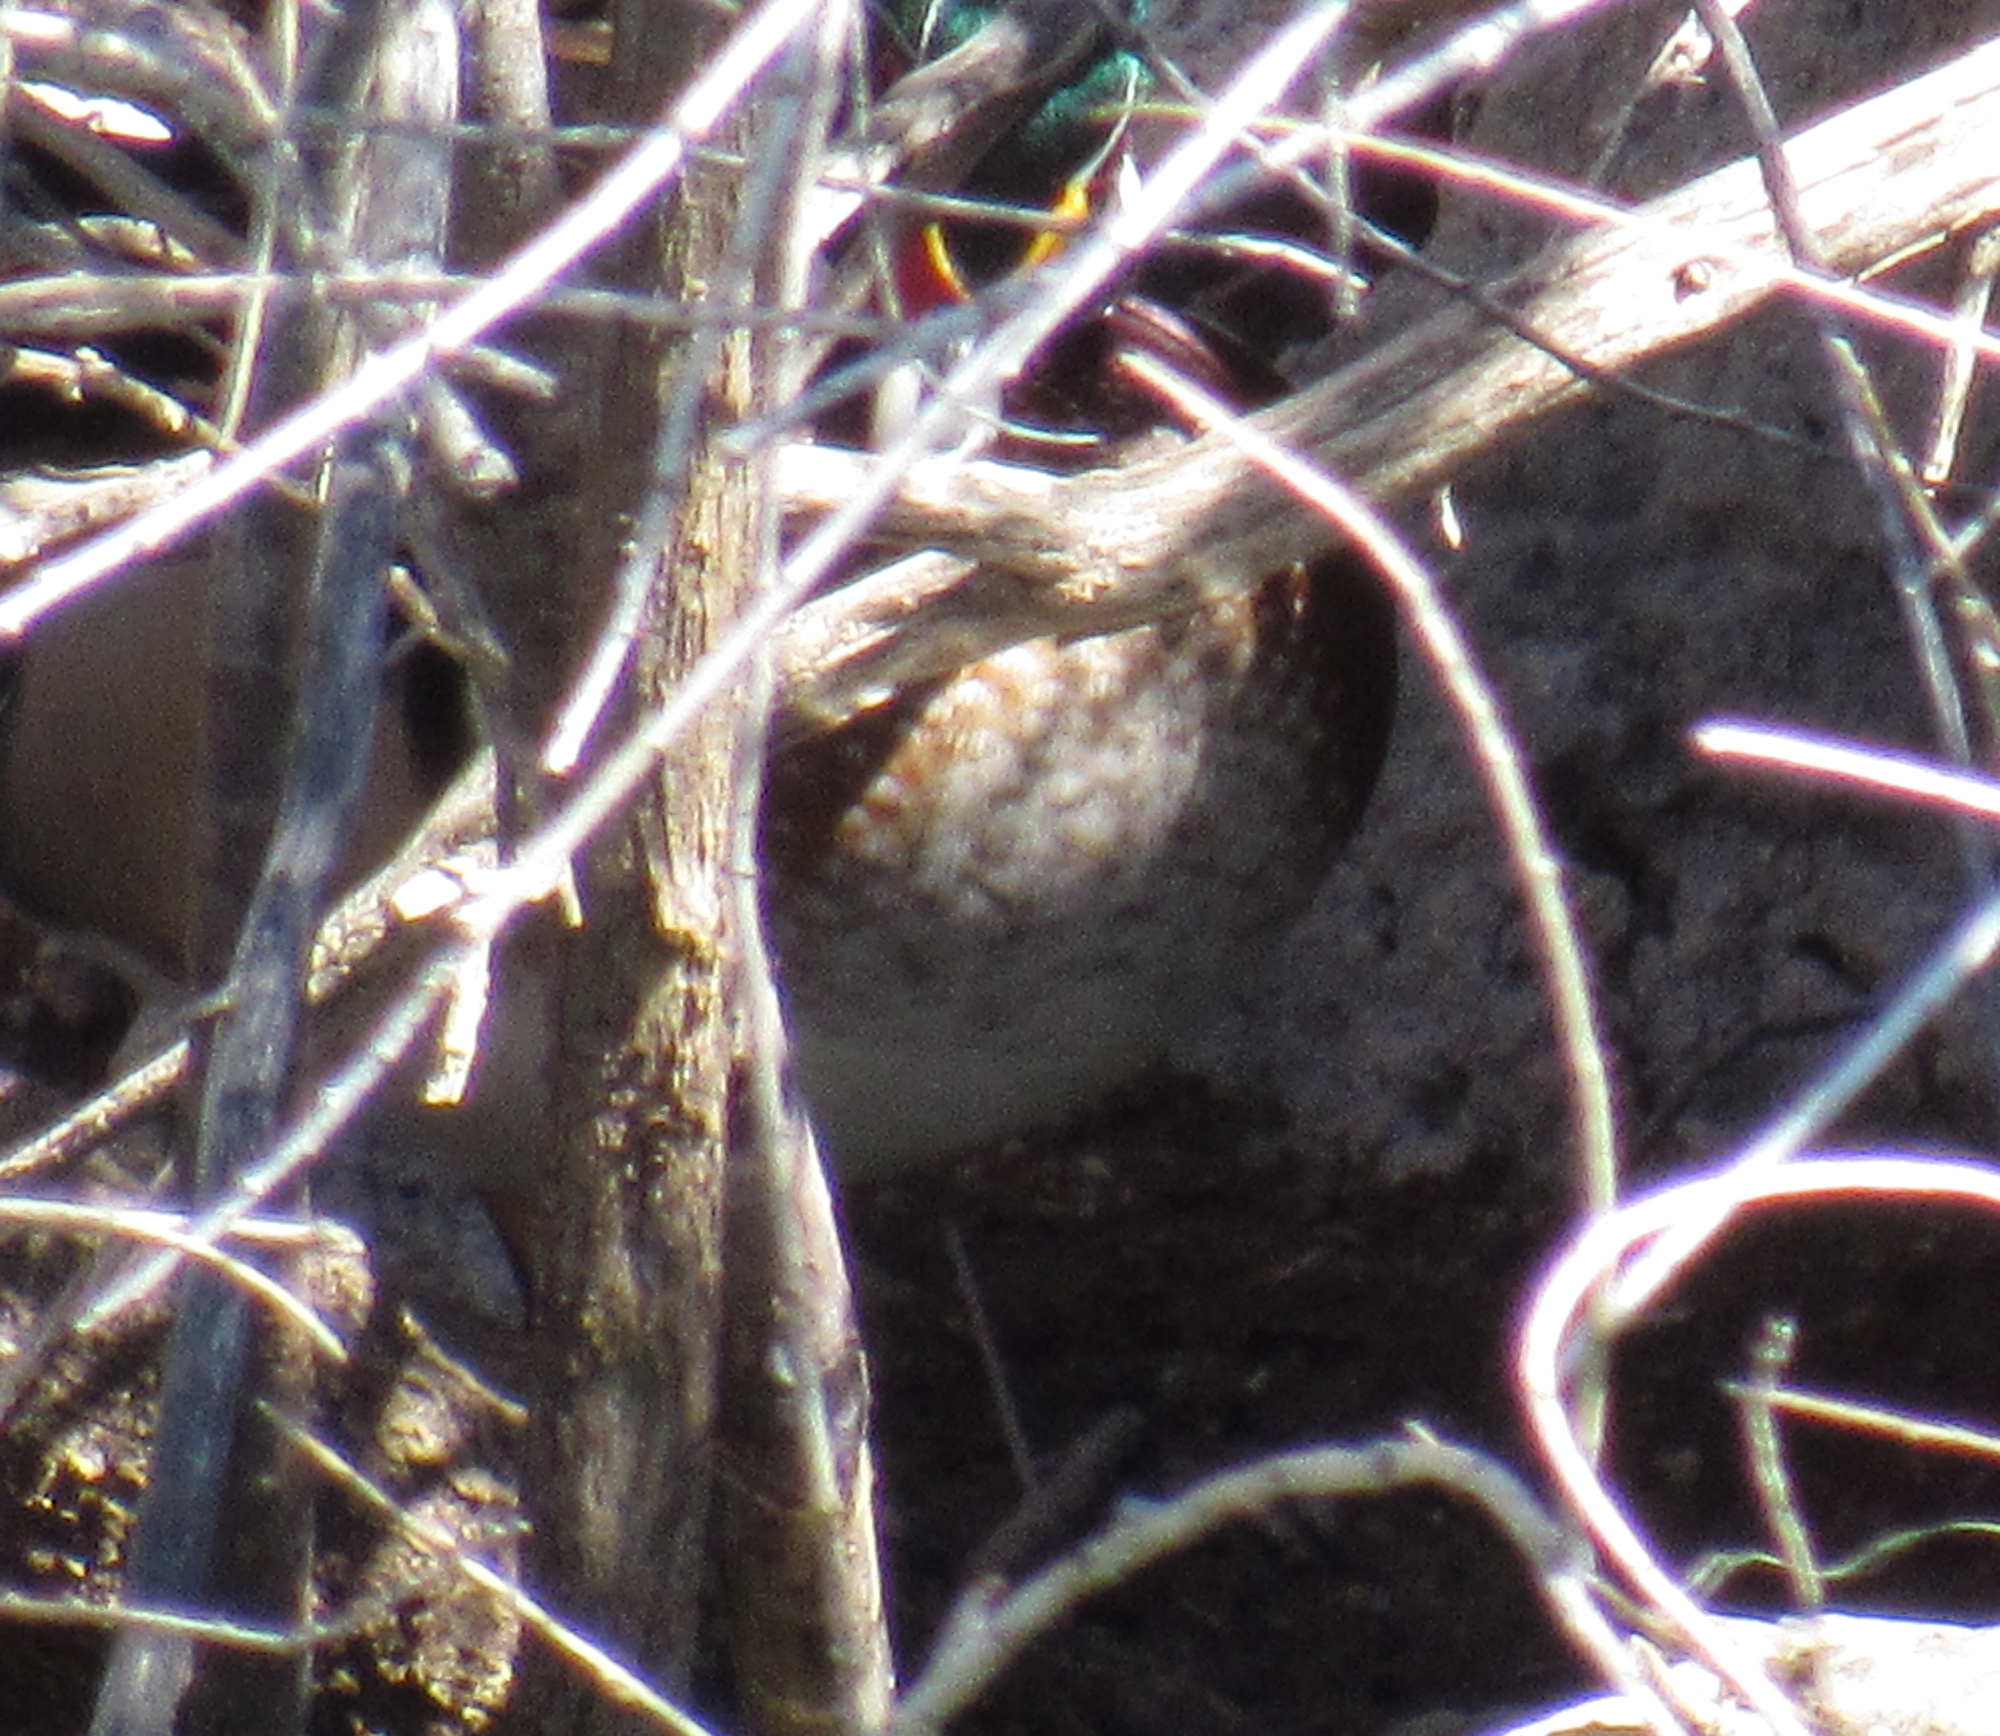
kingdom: Animalia
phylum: Chordata
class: Aves
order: Anseriformes
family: Anatidae
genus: Aix
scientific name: Aix sponsa
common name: Wood duck
